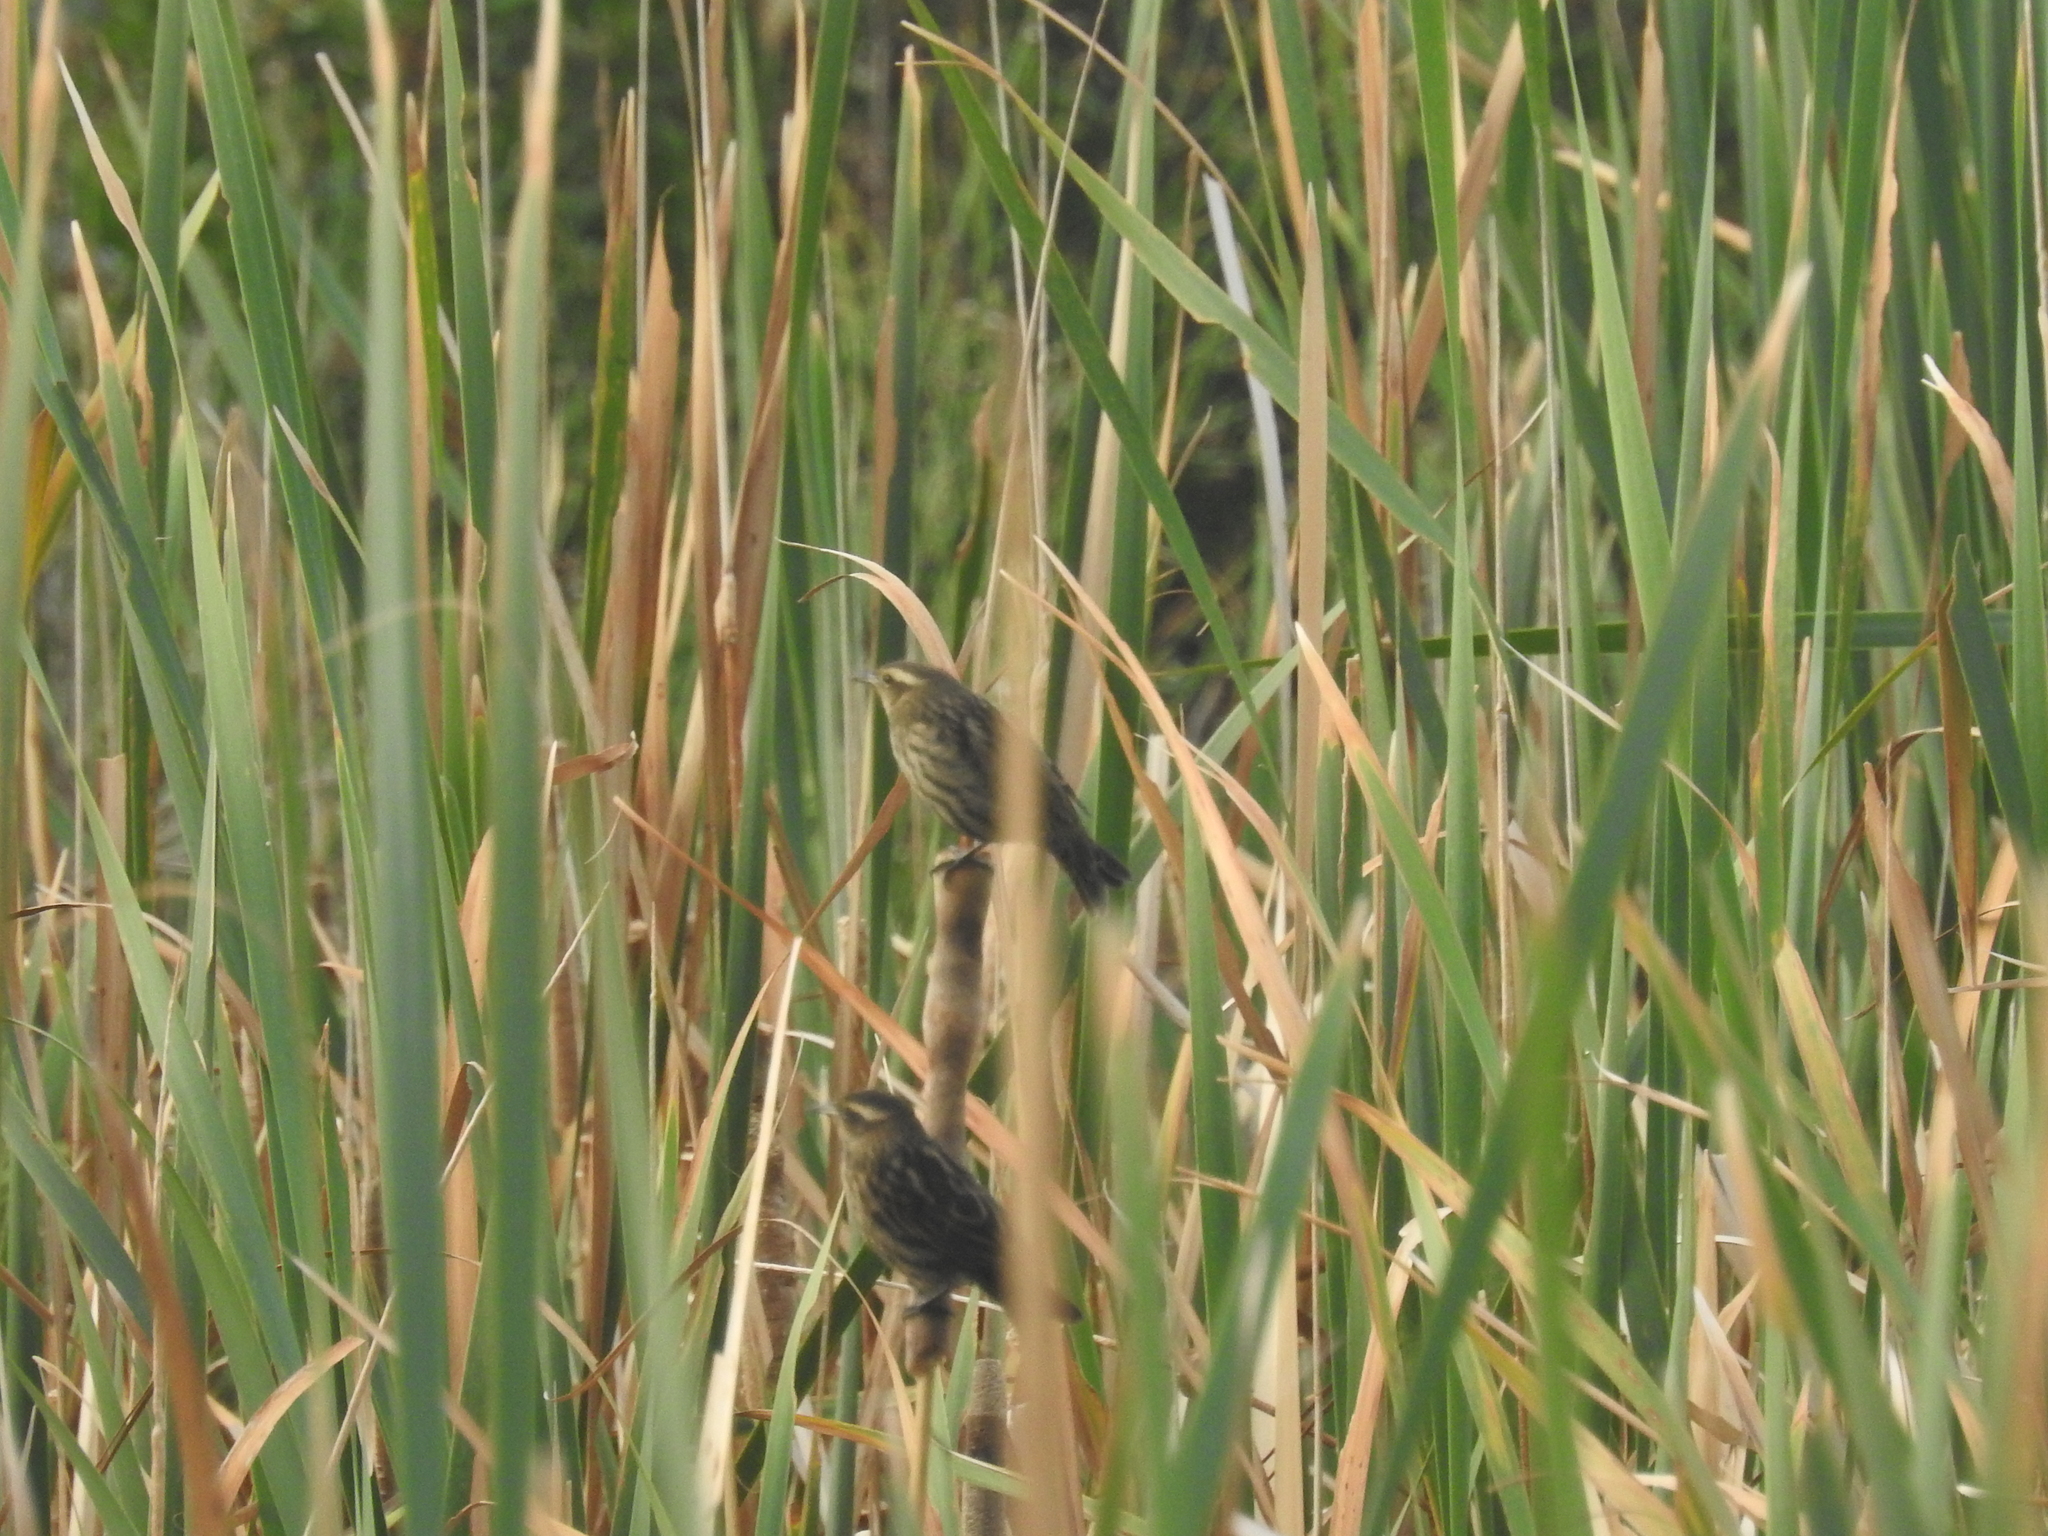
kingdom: Animalia
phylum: Chordata
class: Aves
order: Passeriformes
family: Icteridae
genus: Agelasticus
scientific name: Agelasticus thilius
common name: Yellow-winged blackbird
